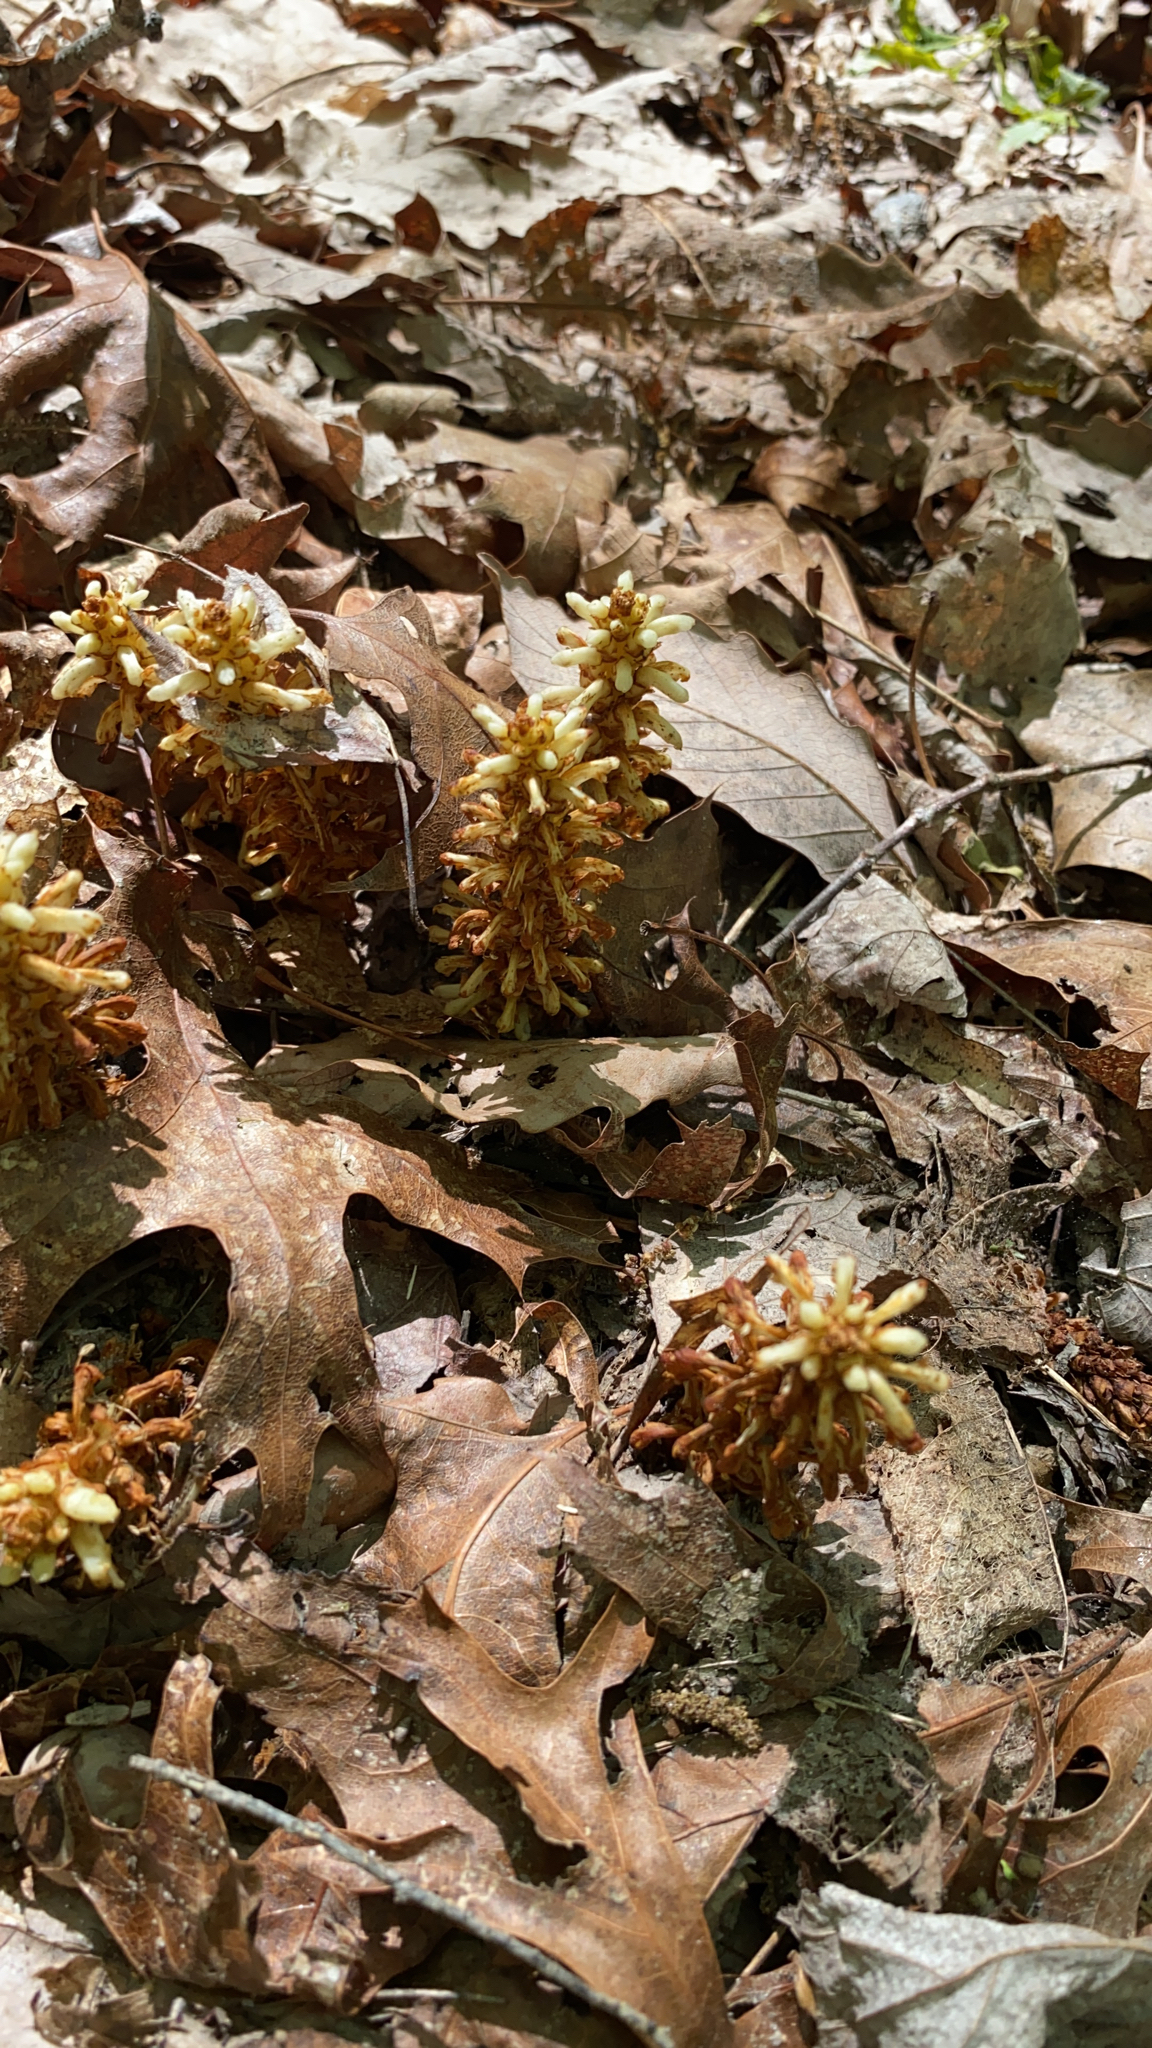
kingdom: Plantae
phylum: Tracheophyta
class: Magnoliopsida
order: Lamiales
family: Orobanchaceae
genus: Conopholis
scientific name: Conopholis americana
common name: American cancer-root
